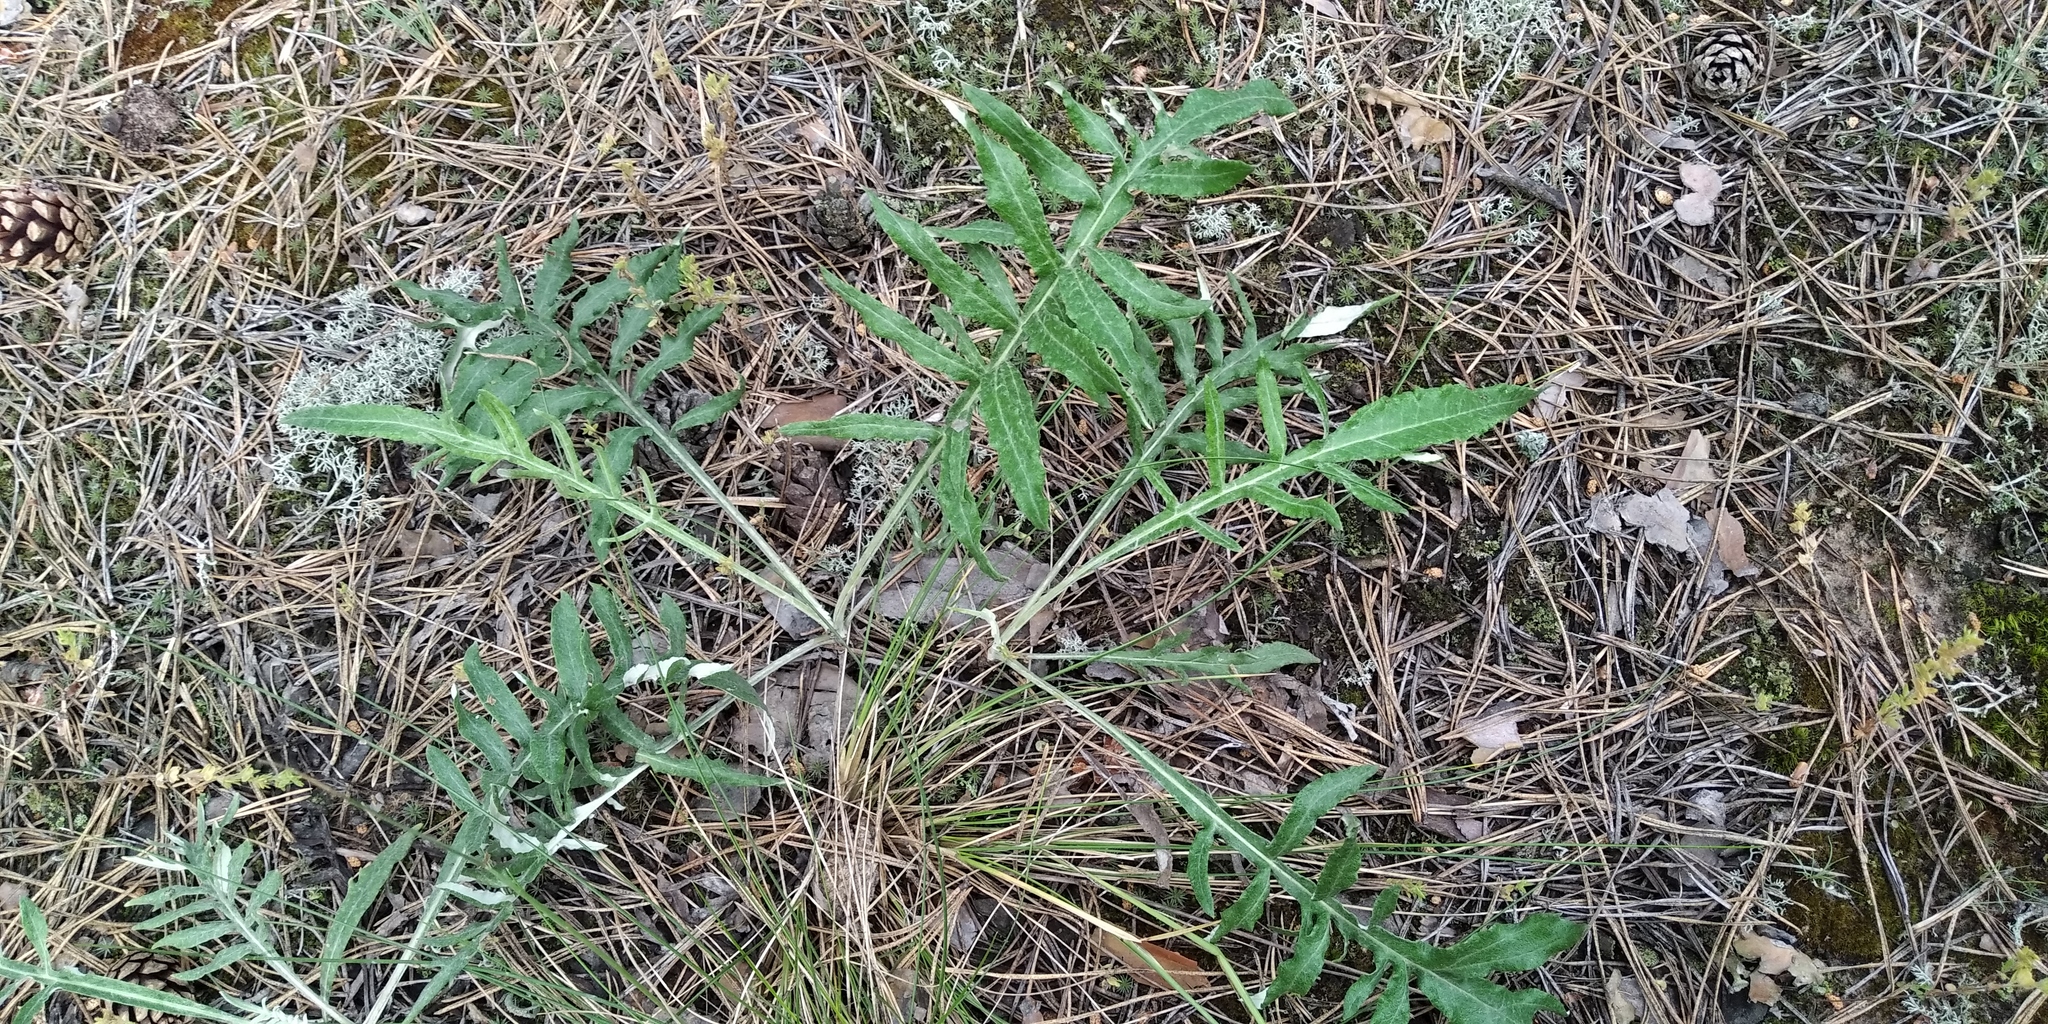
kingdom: Plantae
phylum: Tracheophyta
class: Magnoliopsida
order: Asterales
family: Asteraceae
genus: Jurinea
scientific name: Jurinea cyanoides
